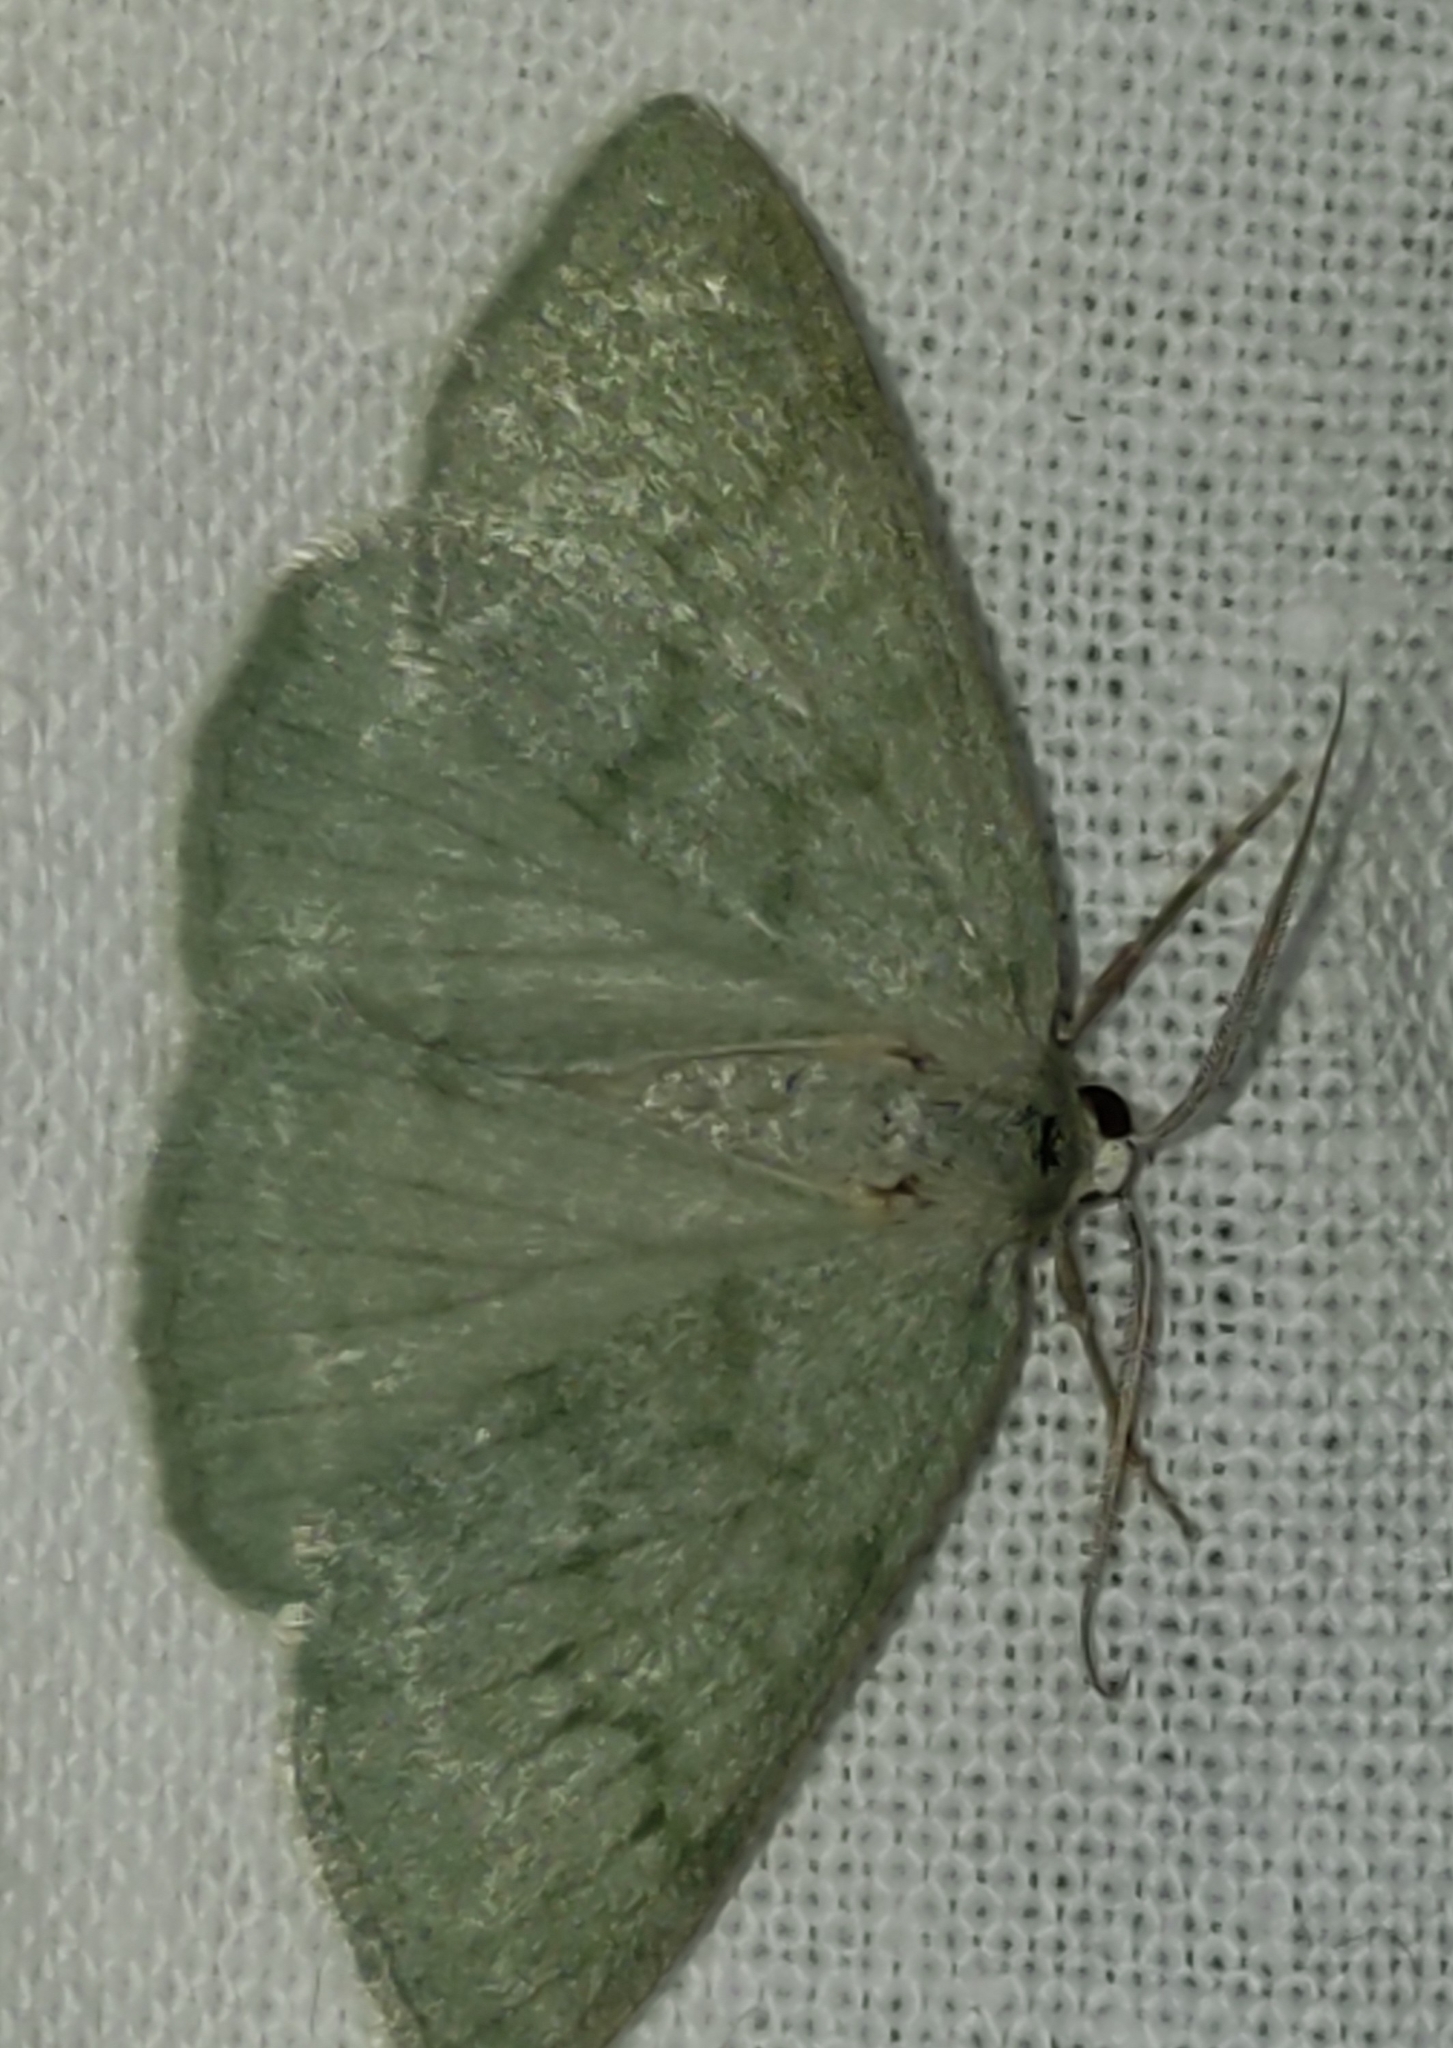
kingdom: Animalia
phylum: Arthropoda
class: Insecta
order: Lepidoptera
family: Geometridae
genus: Pseudoterpna
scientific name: Pseudoterpna pruinata
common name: Grass emerald
